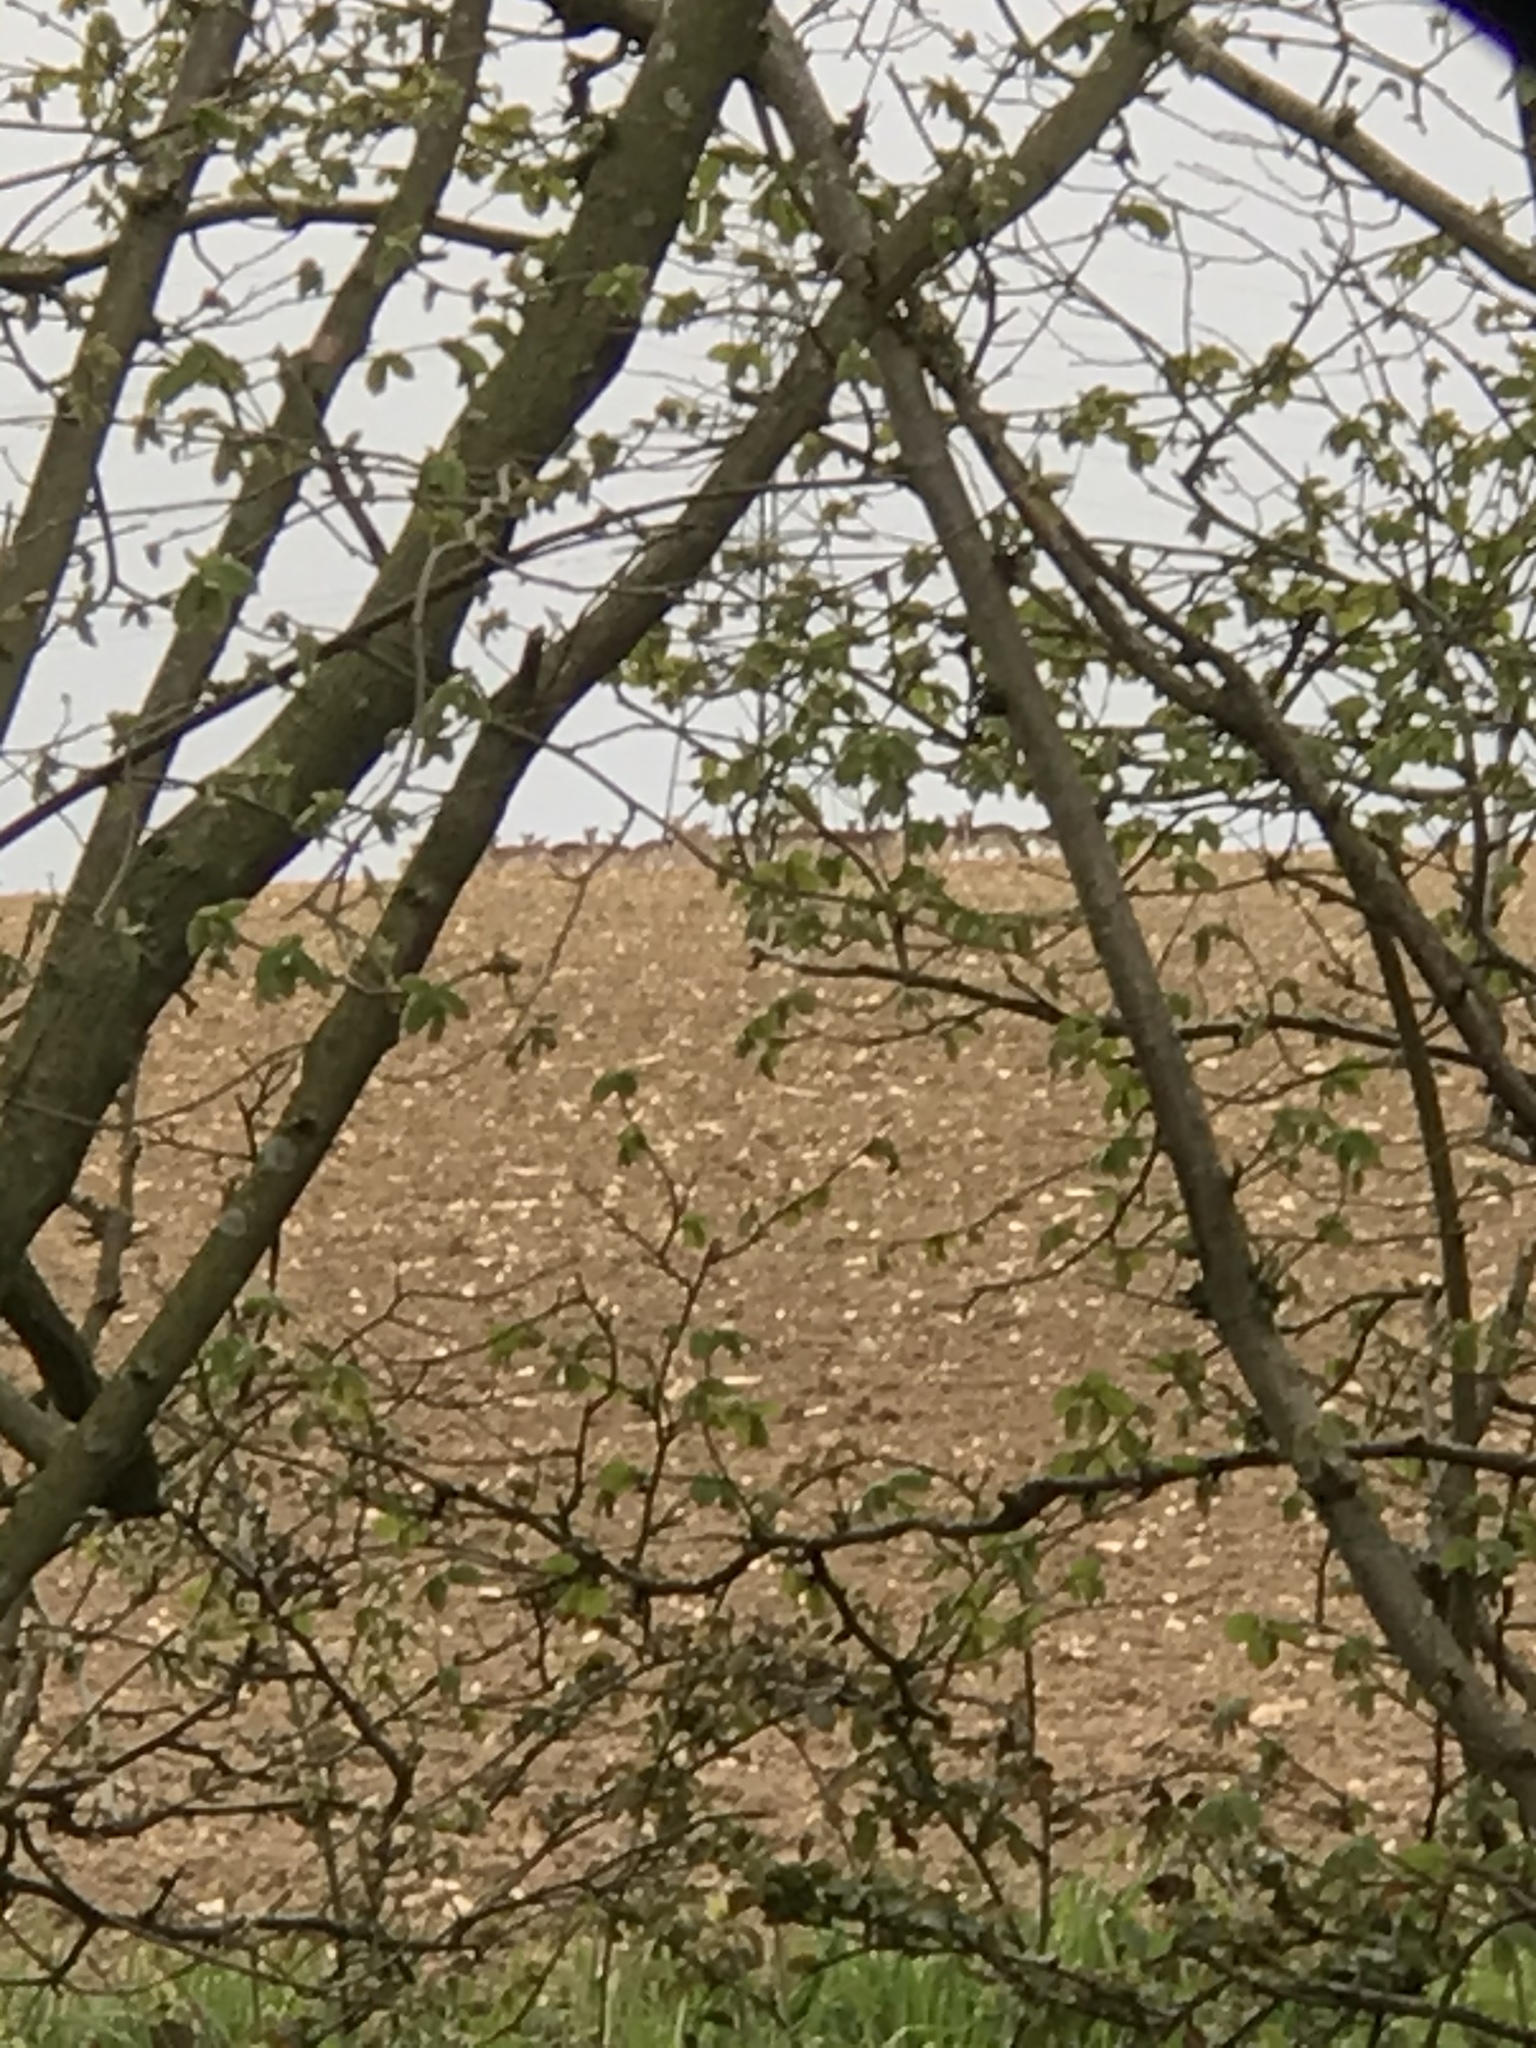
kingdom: Animalia
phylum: Chordata
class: Mammalia
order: Artiodactyla
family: Cervidae
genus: Dama
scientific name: Dama dama
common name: Fallow deer
